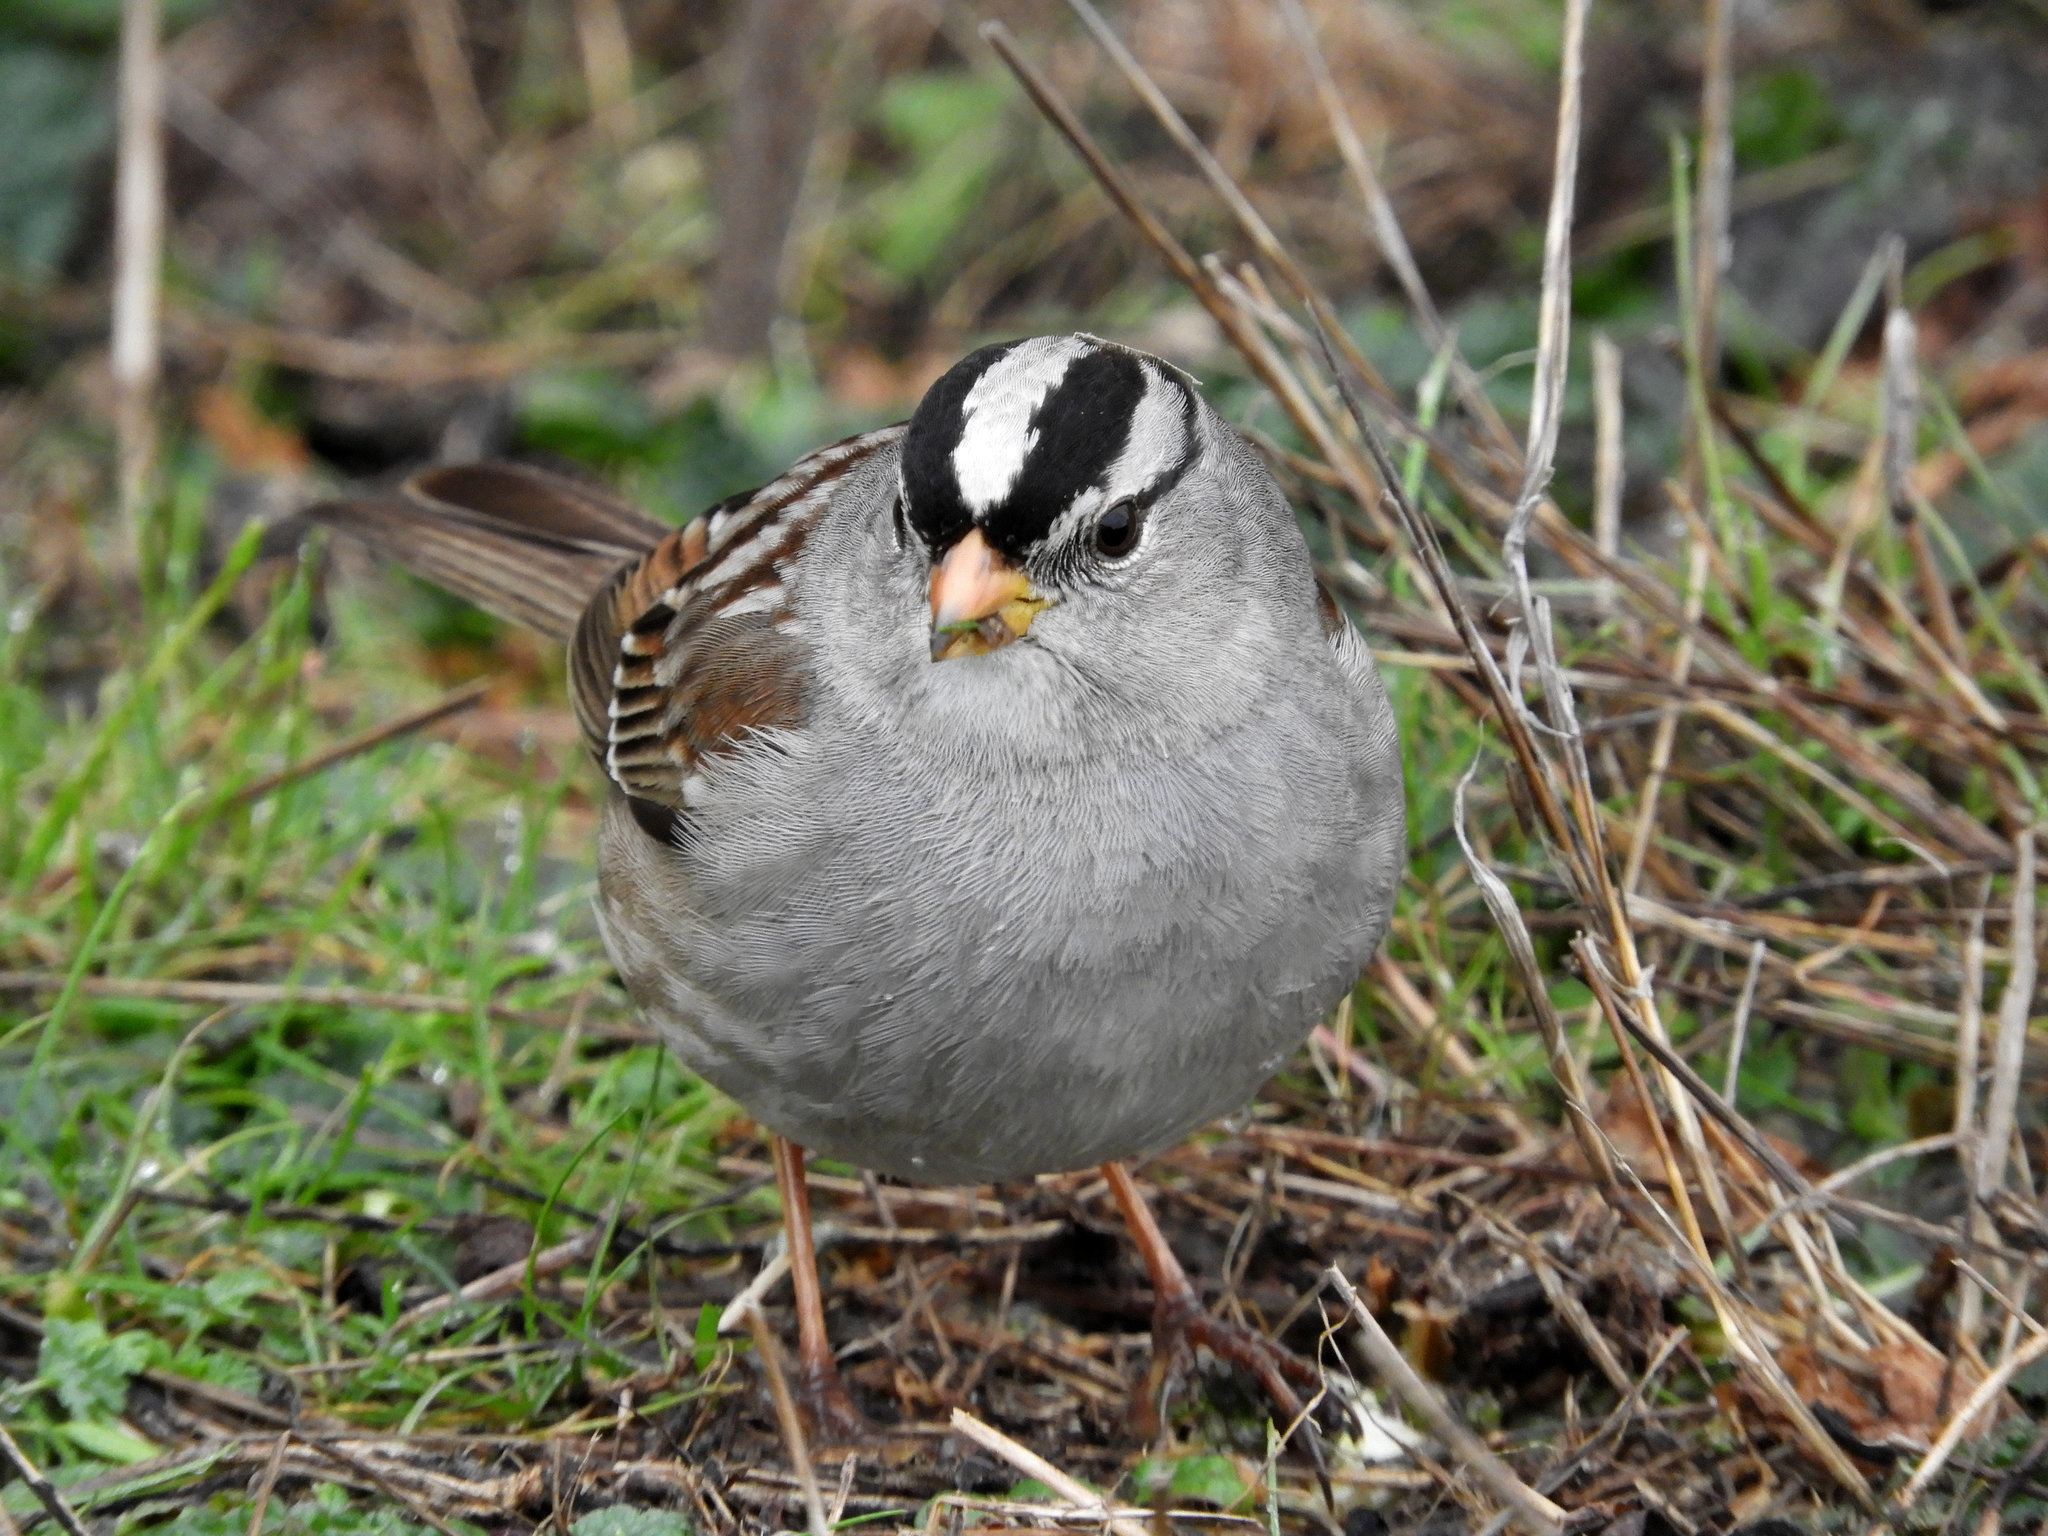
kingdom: Animalia
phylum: Chordata
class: Aves
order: Passeriformes
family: Passerellidae
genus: Zonotrichia
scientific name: Zonotrichia leucophrys
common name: White-crowned sparrow
